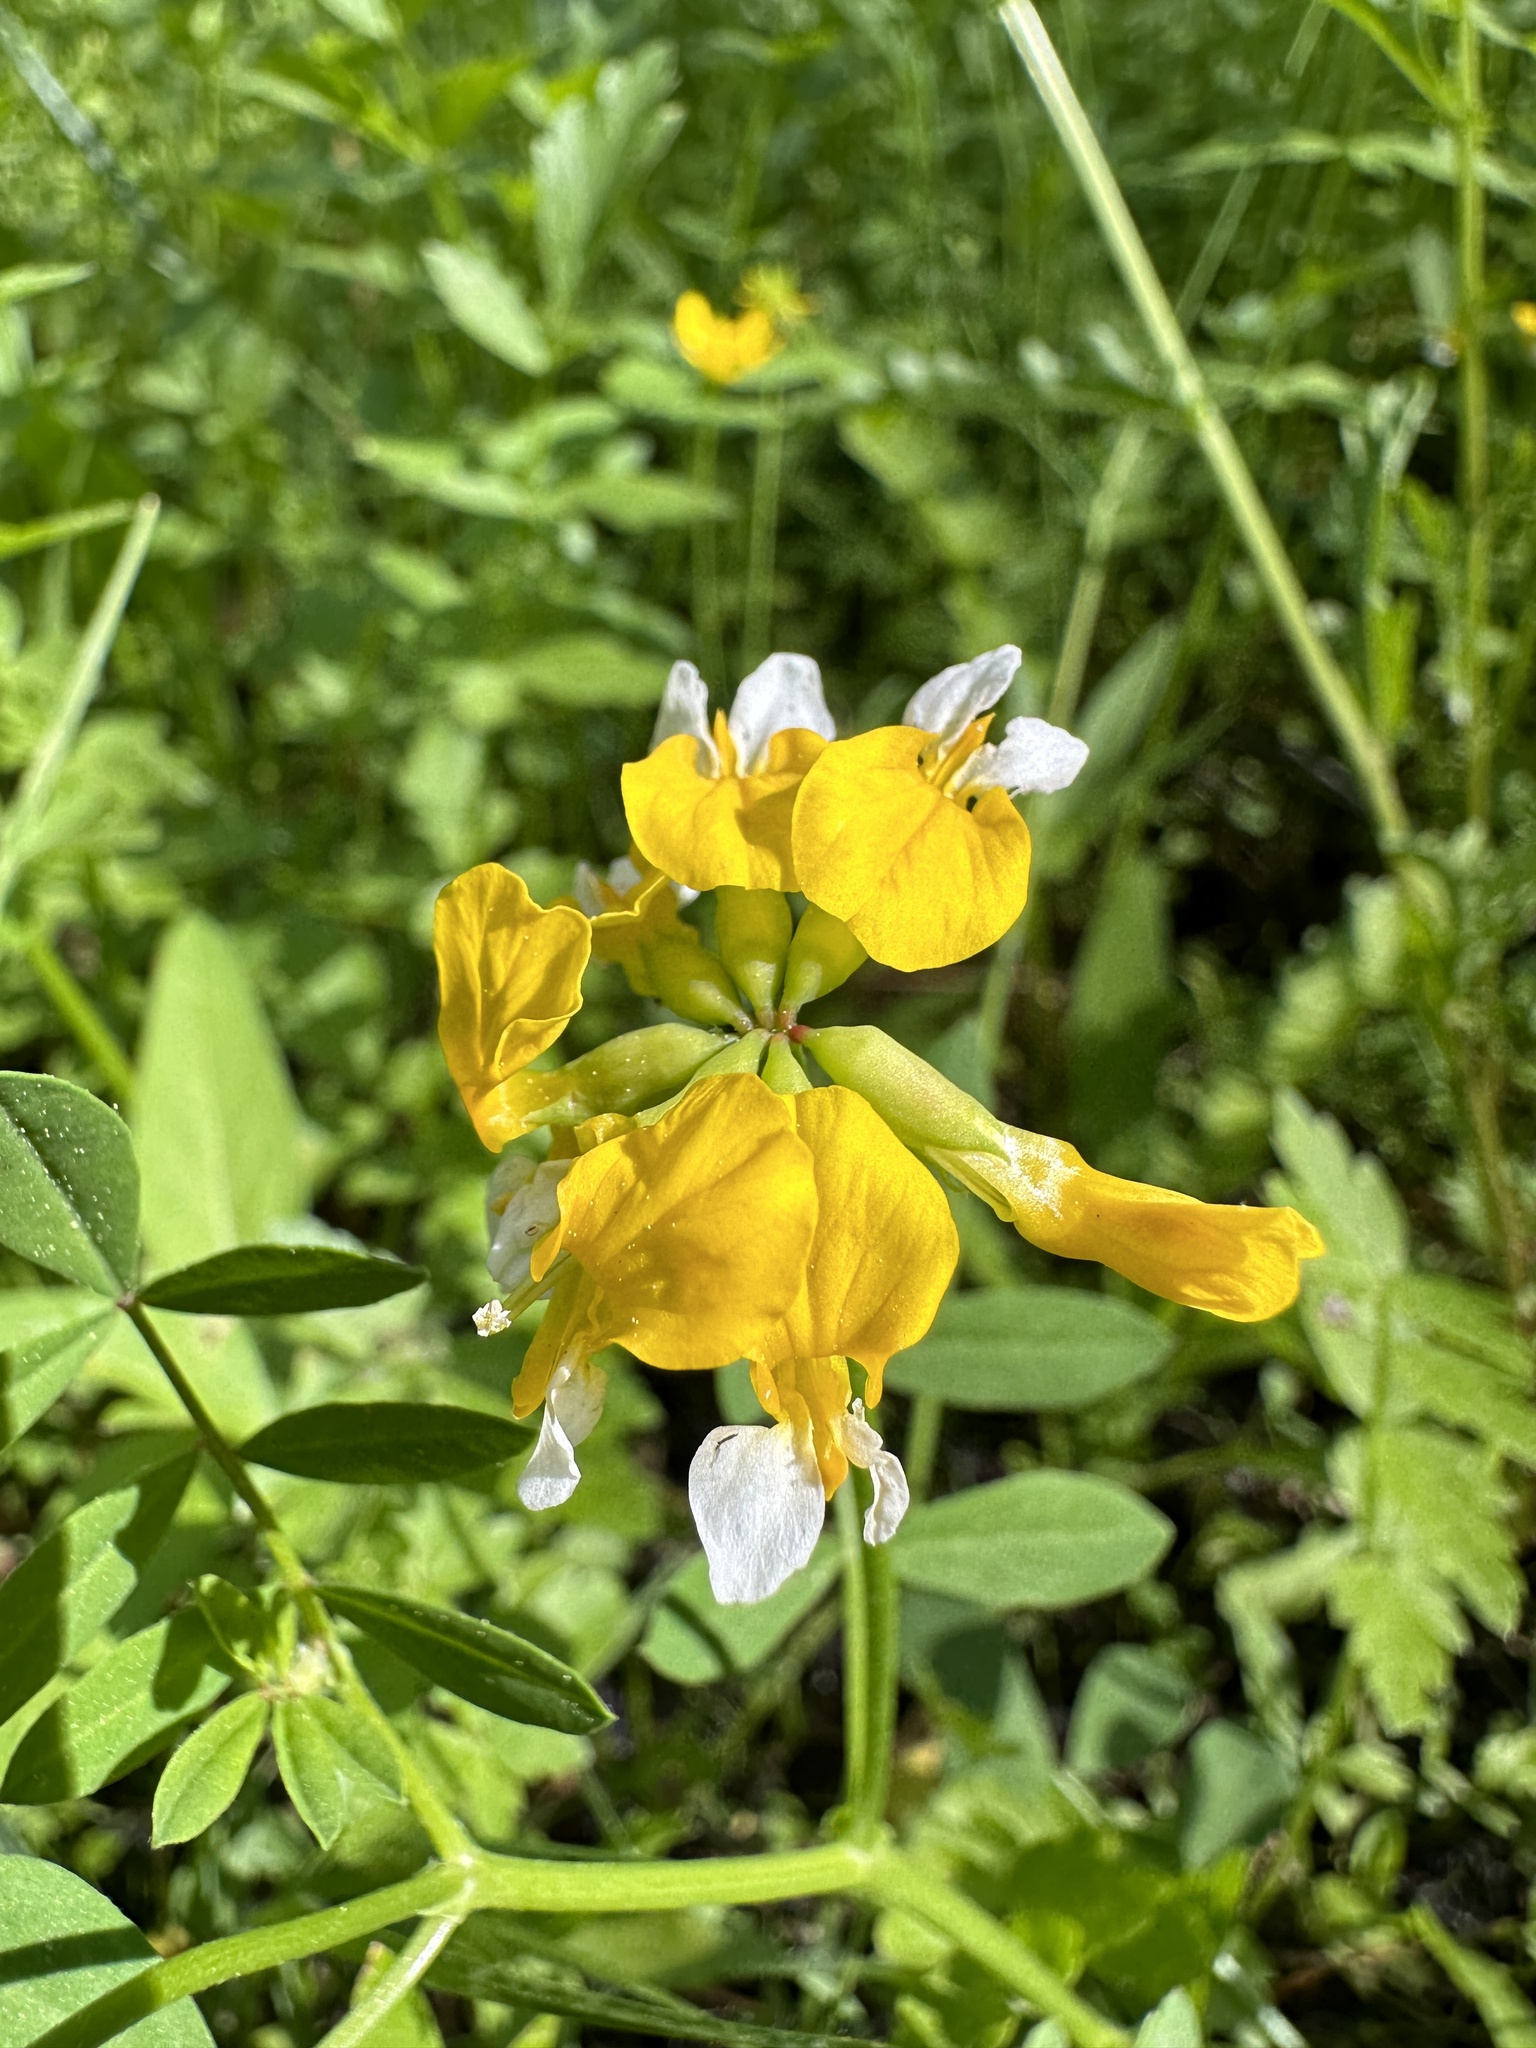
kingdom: Plantae
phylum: Tracheophyta
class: Magnoliopsida
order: Fabales
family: Fabaceae
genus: Hosackia
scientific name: Hosackia oblongifolia
